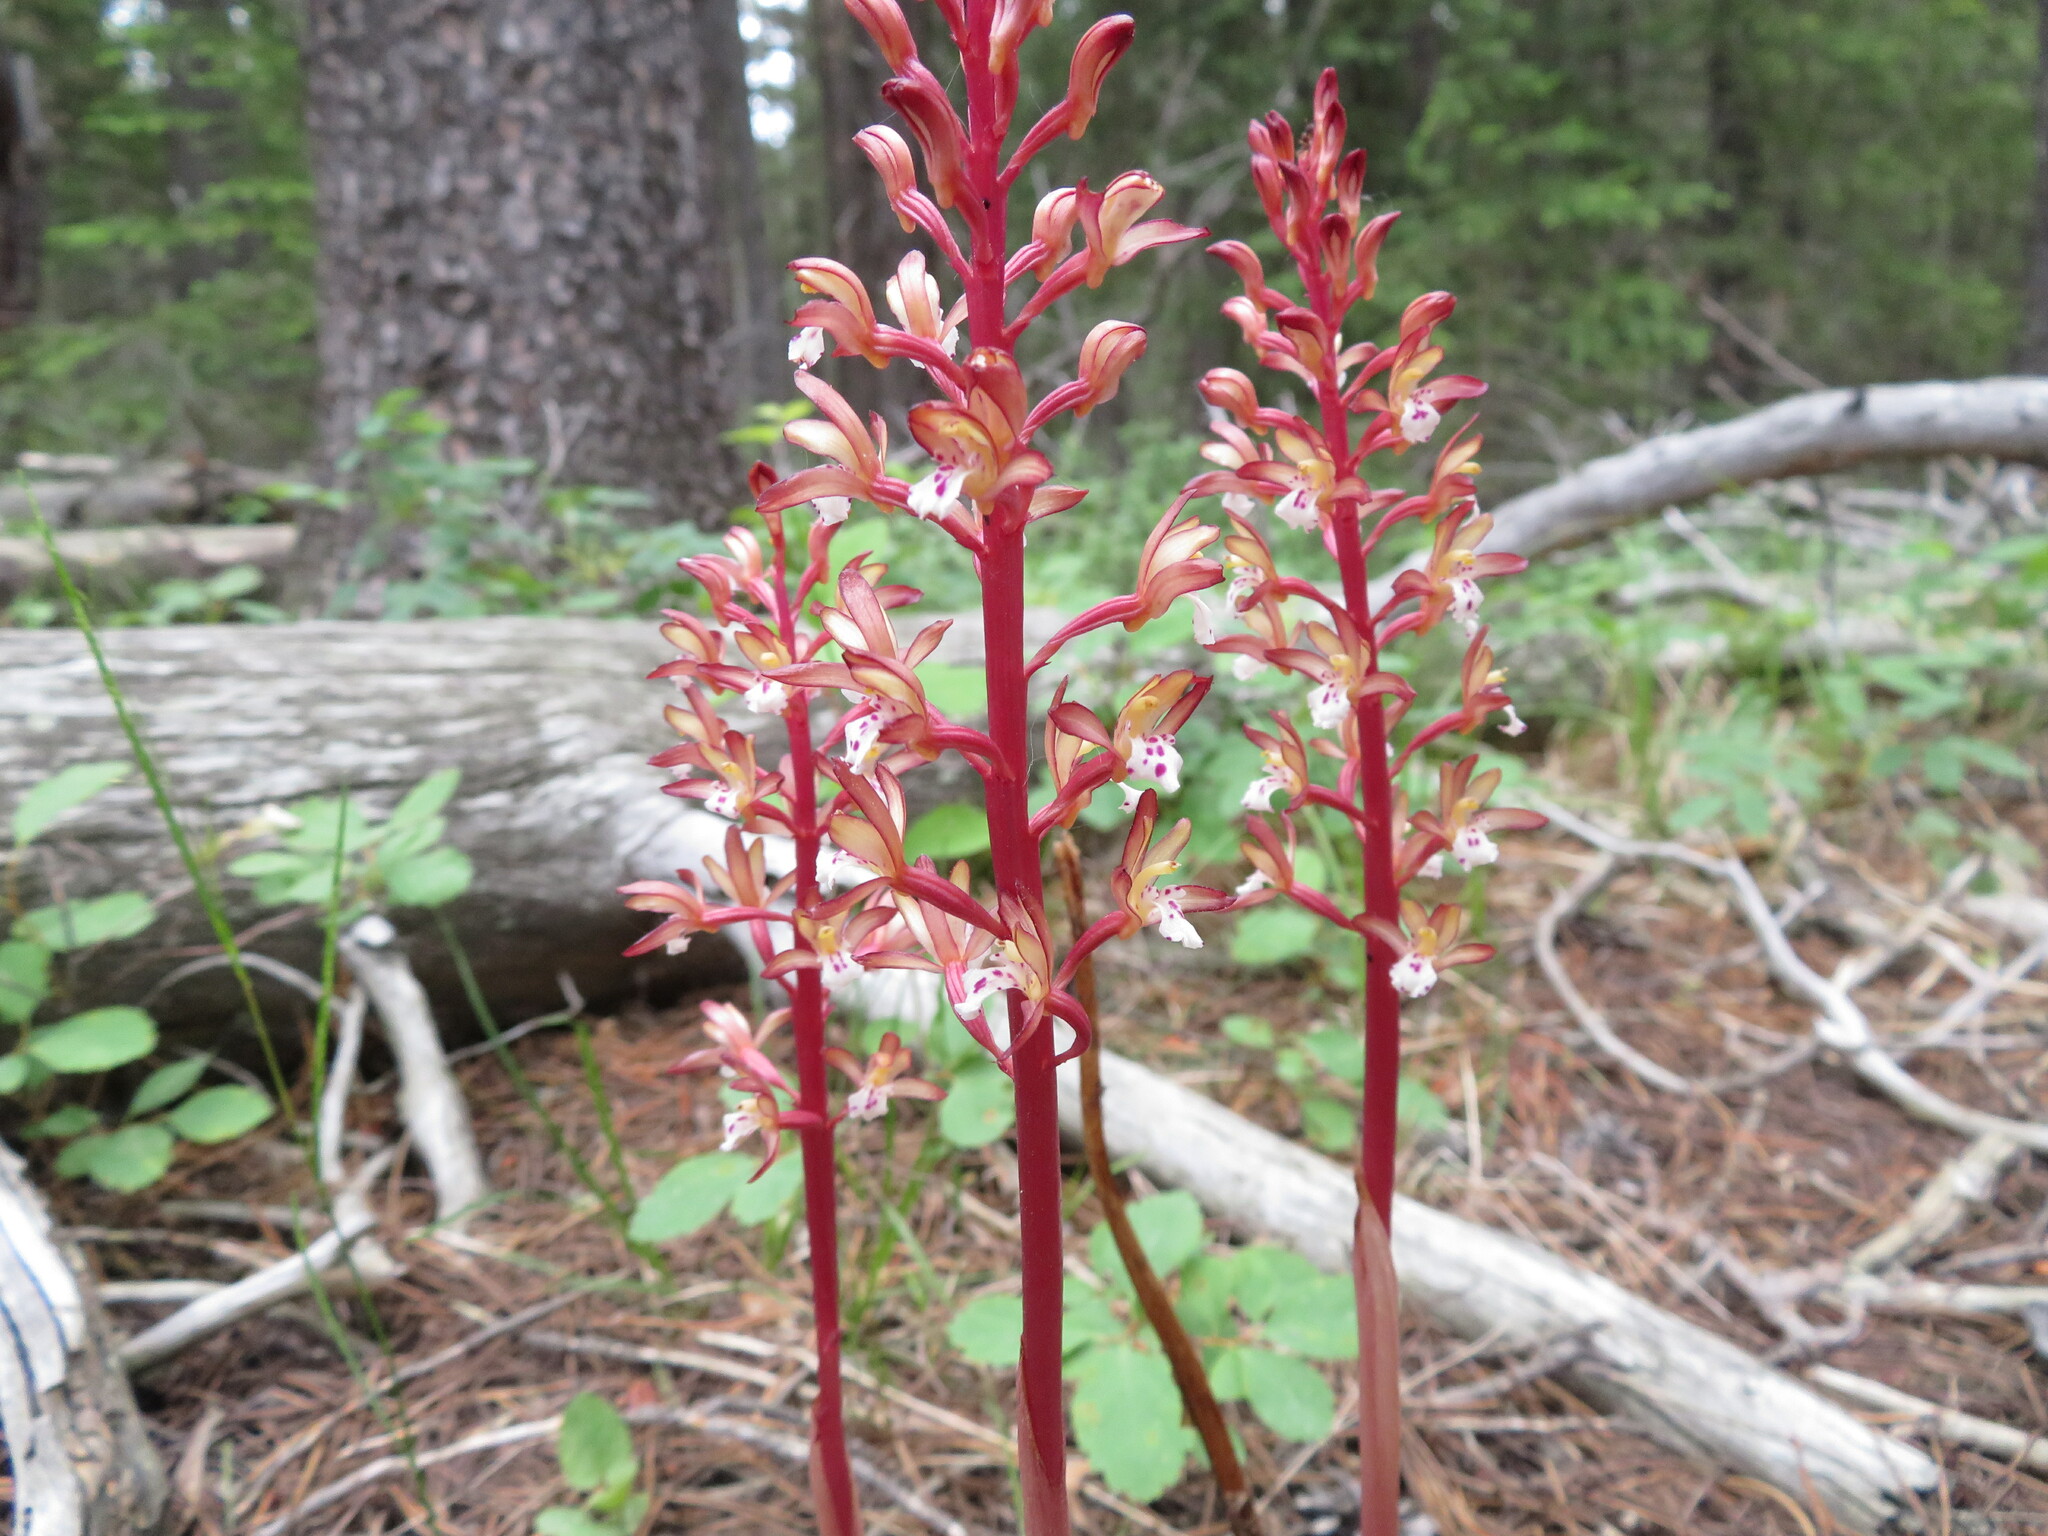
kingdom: Plantae
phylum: Tracheophyta
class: Liliopsida
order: Asparagales
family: Orchidaceae
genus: Corallorhiza
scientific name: Corallorhiza maculata
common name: Spotted coralroot
